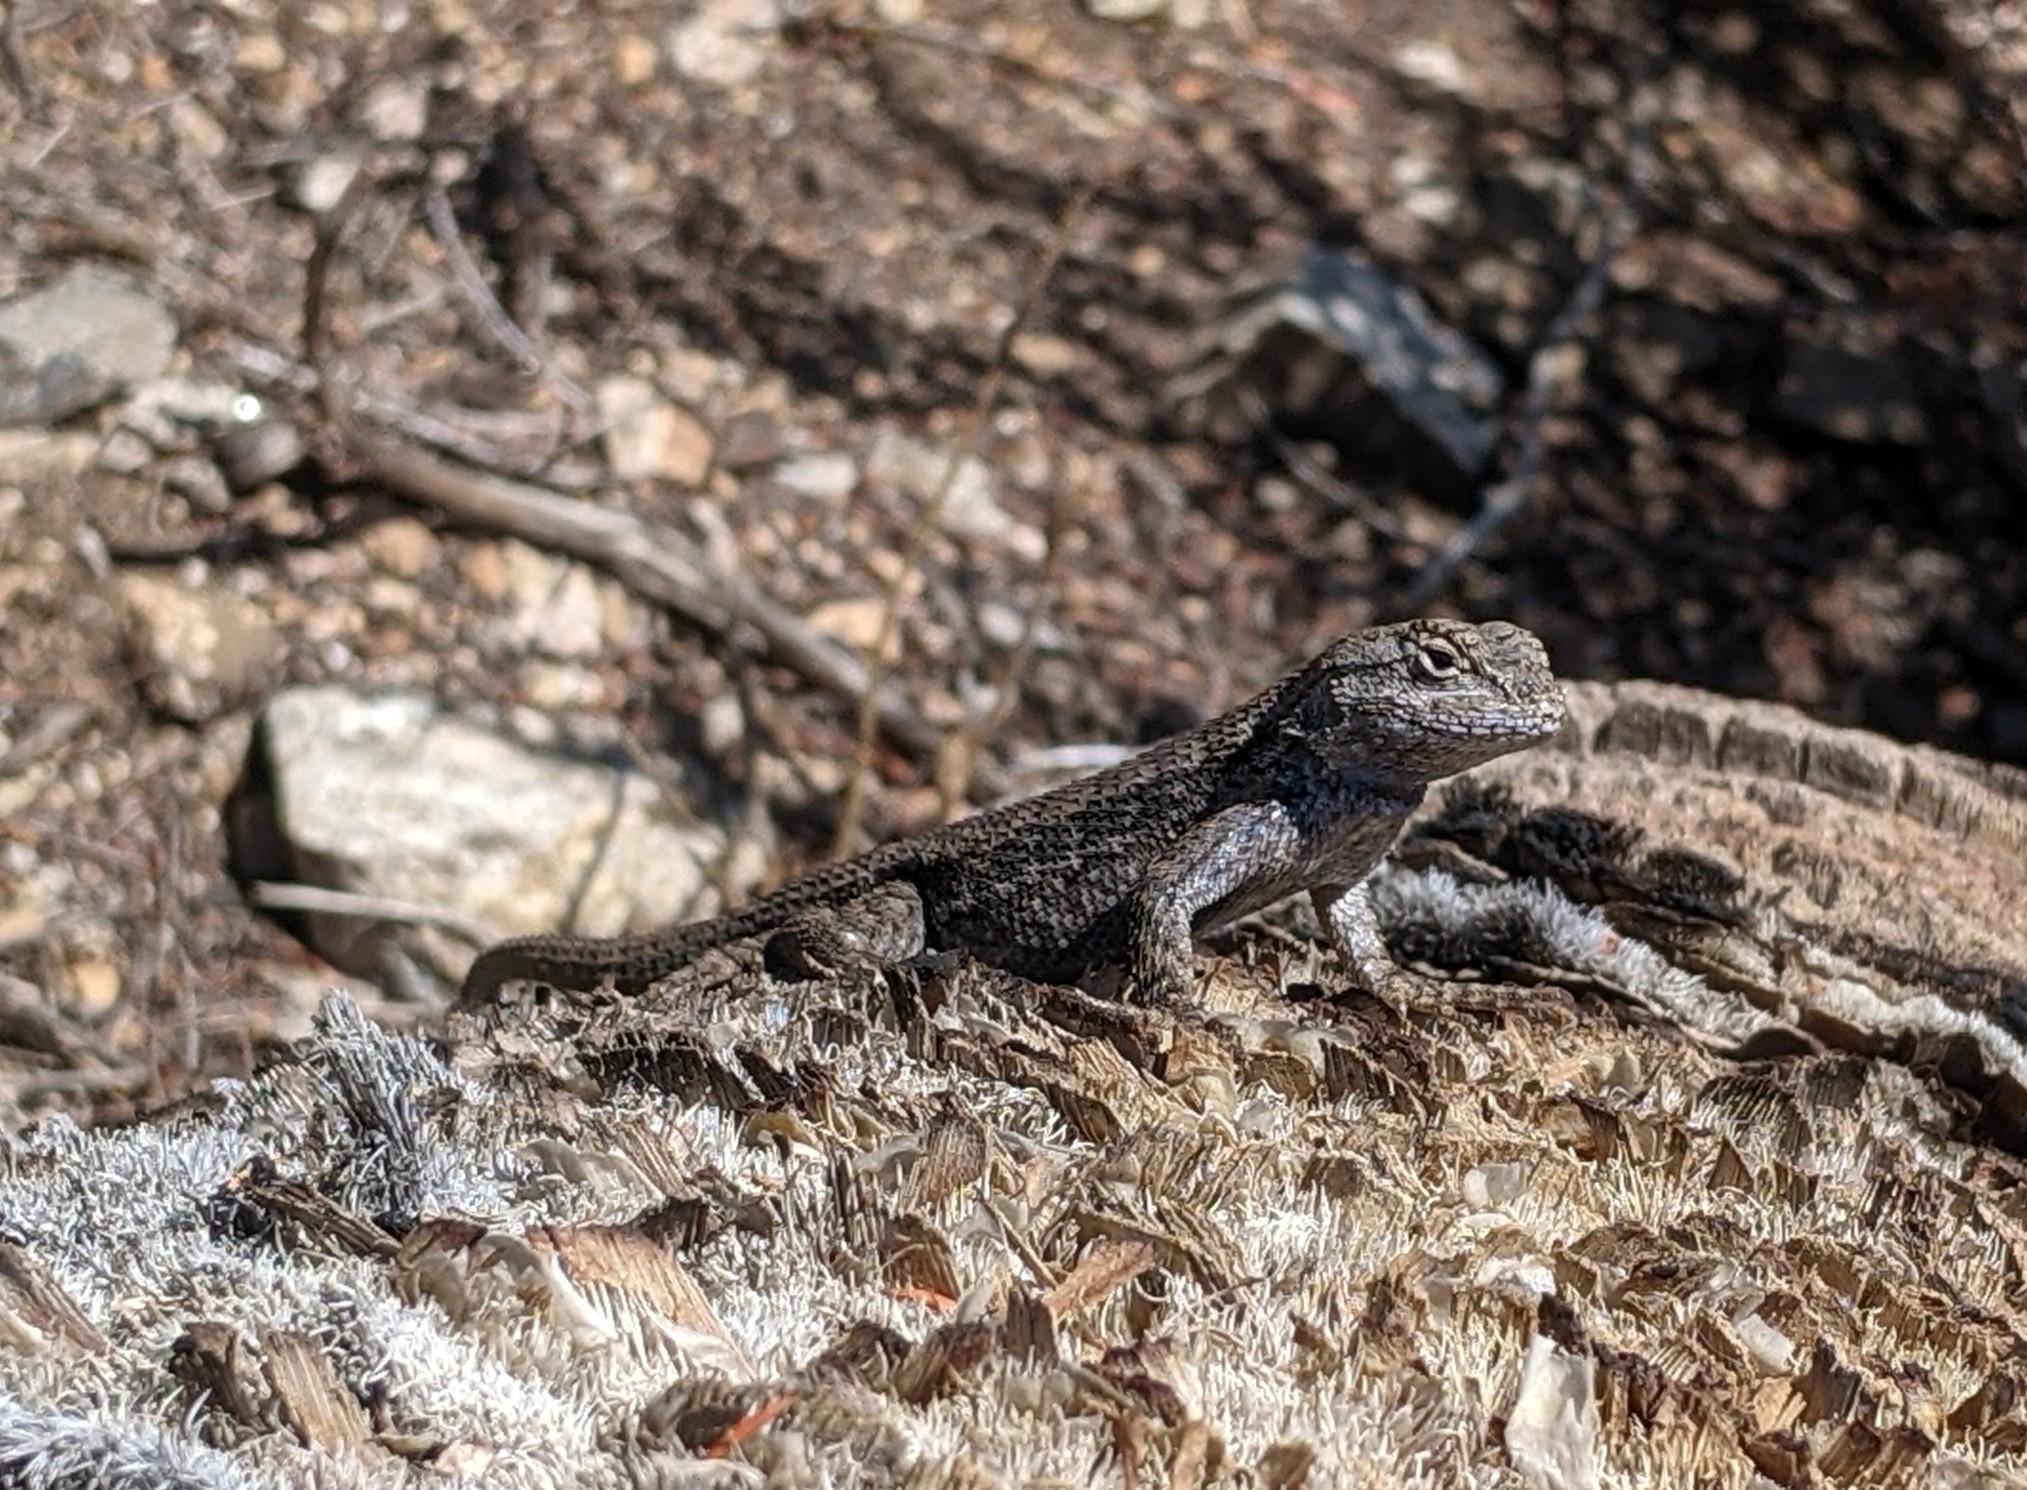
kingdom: Animalia
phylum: Chordata
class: Squamata
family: Phrynosomatidae
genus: Sceloporus
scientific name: Sceloporus occidentalis
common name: Western fence lizard
